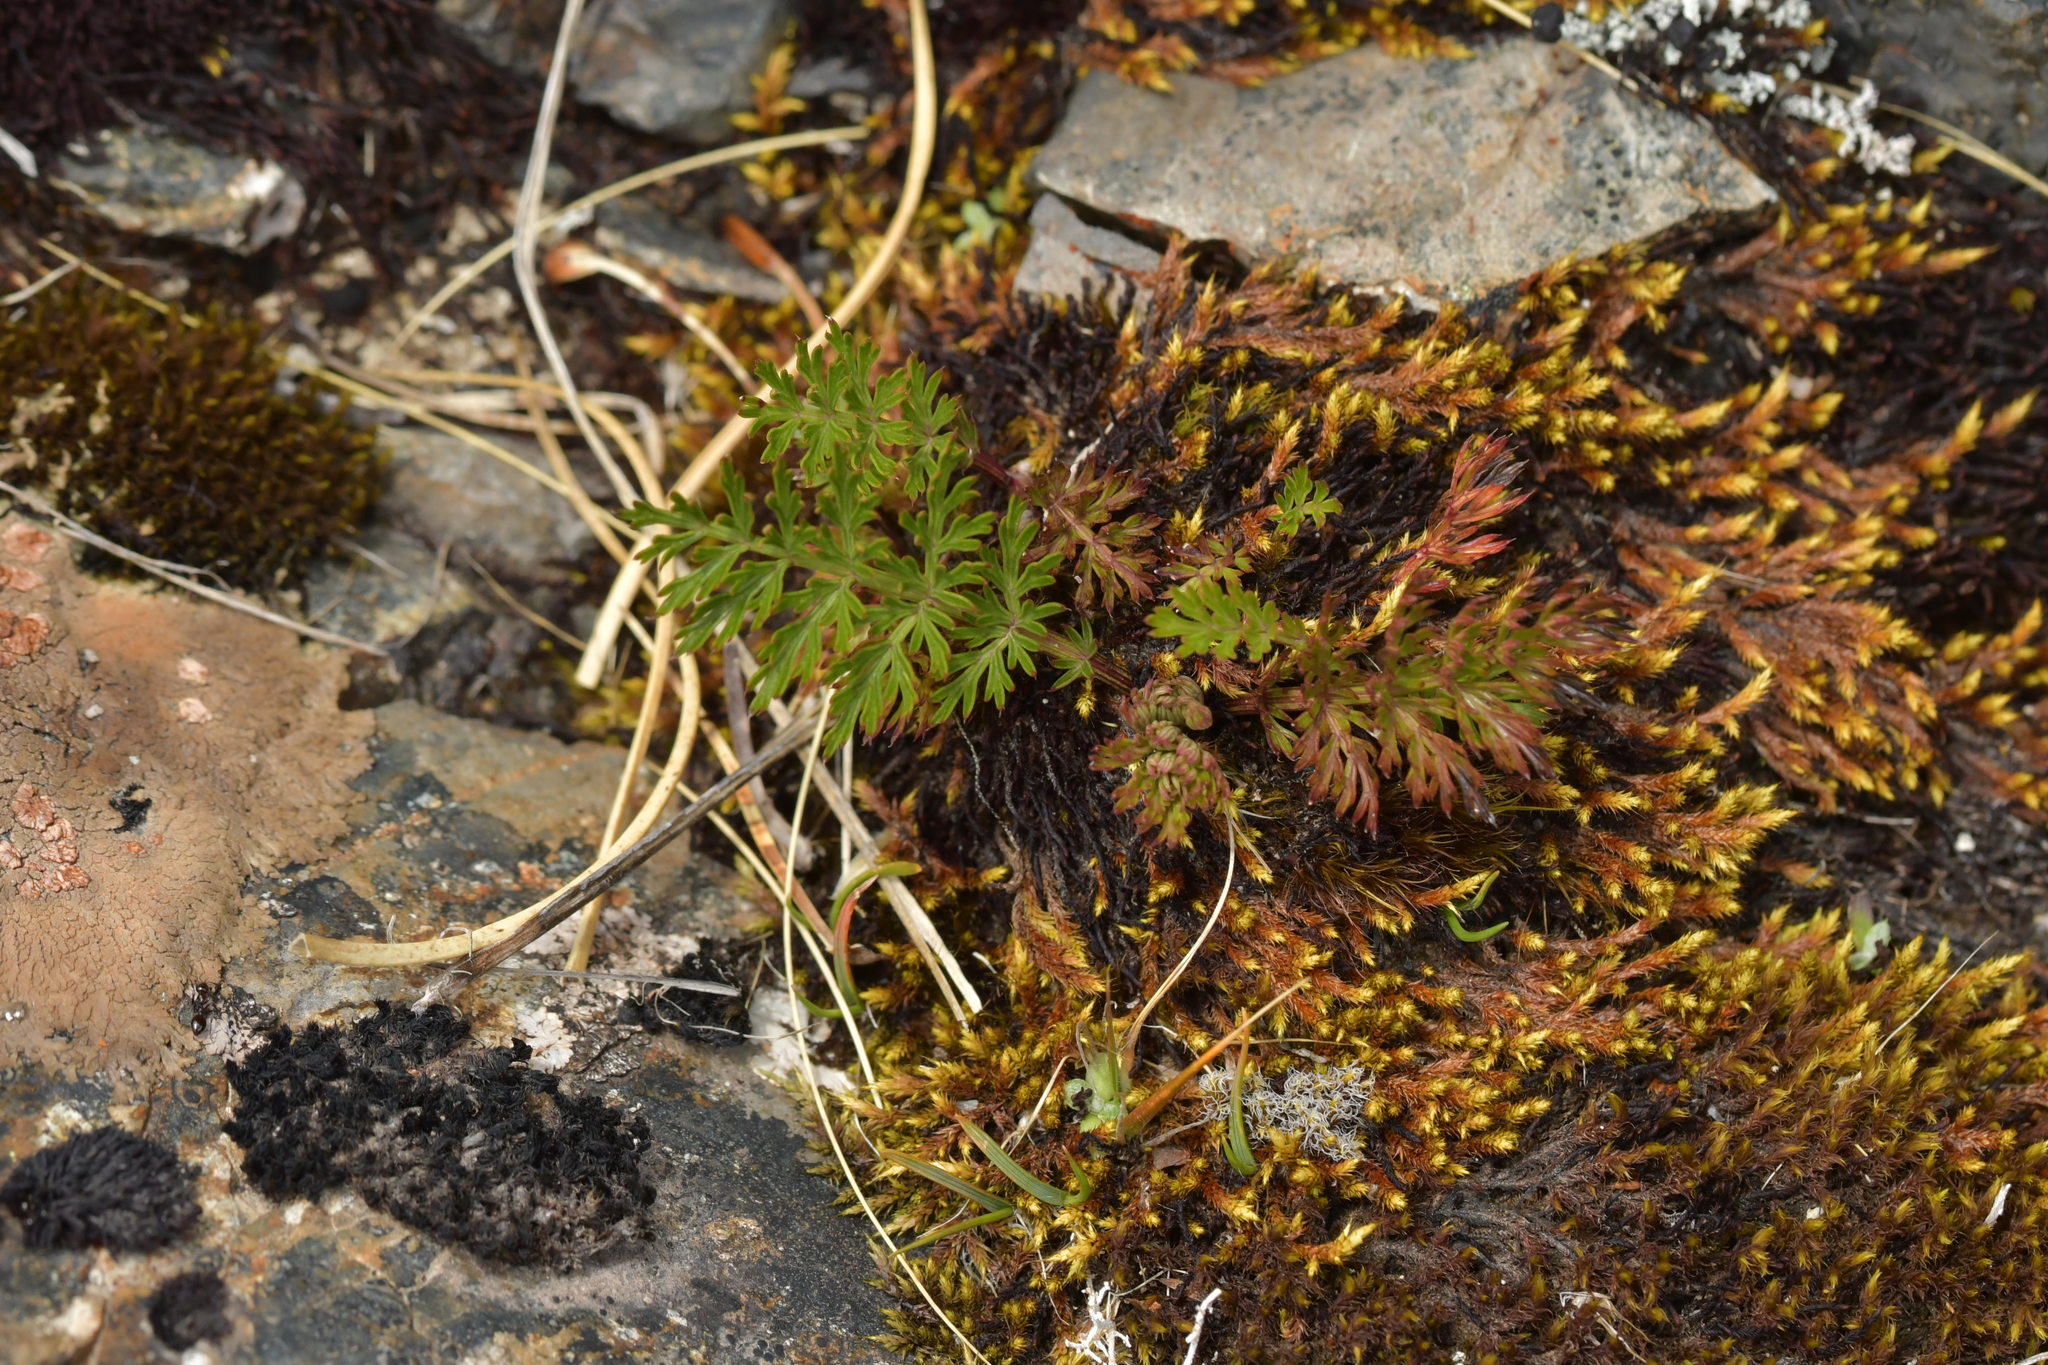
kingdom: Plantae
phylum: Tracheophyta
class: Magnoliopsida
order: Apiales
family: Apiaceae
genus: Anisotome
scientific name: Anisotome haastii
